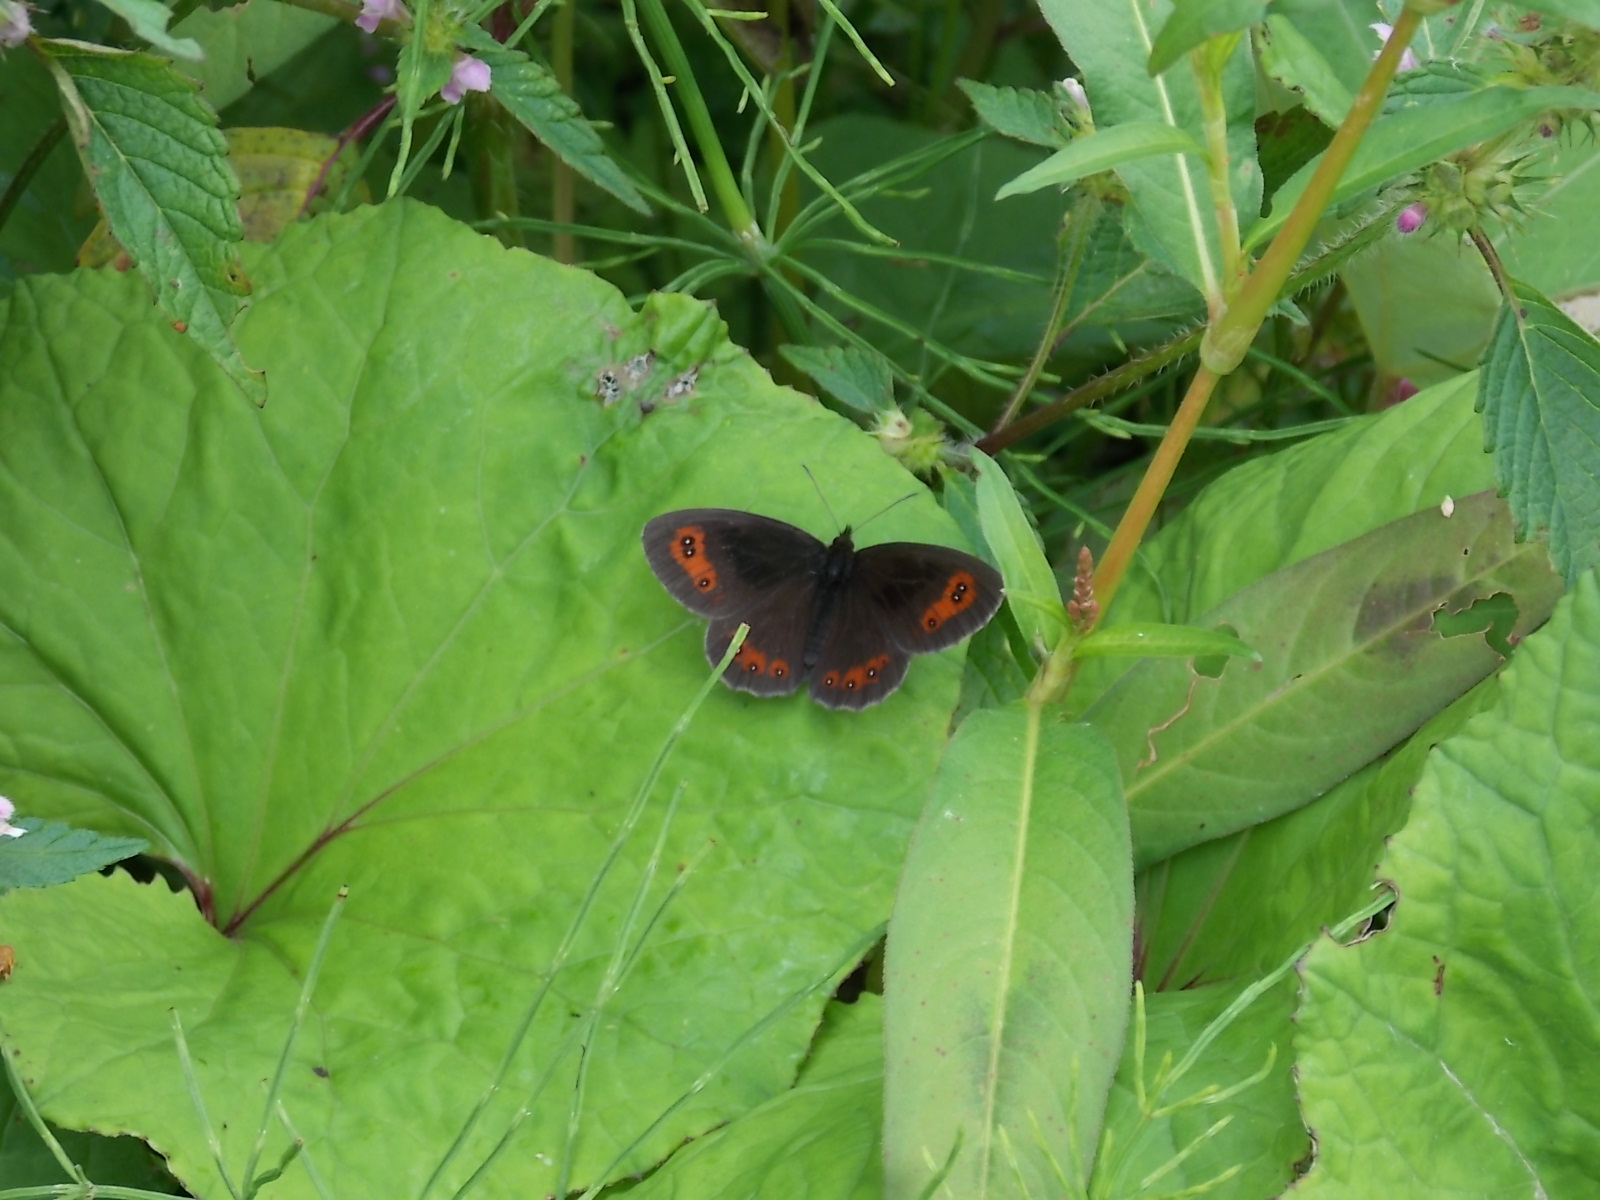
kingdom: Animalia
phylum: Arthropoda
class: Insecta
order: Lepidoptera
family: Nymphalidae
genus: Erebia
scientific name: Erebia aethiops
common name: Scotch argus
